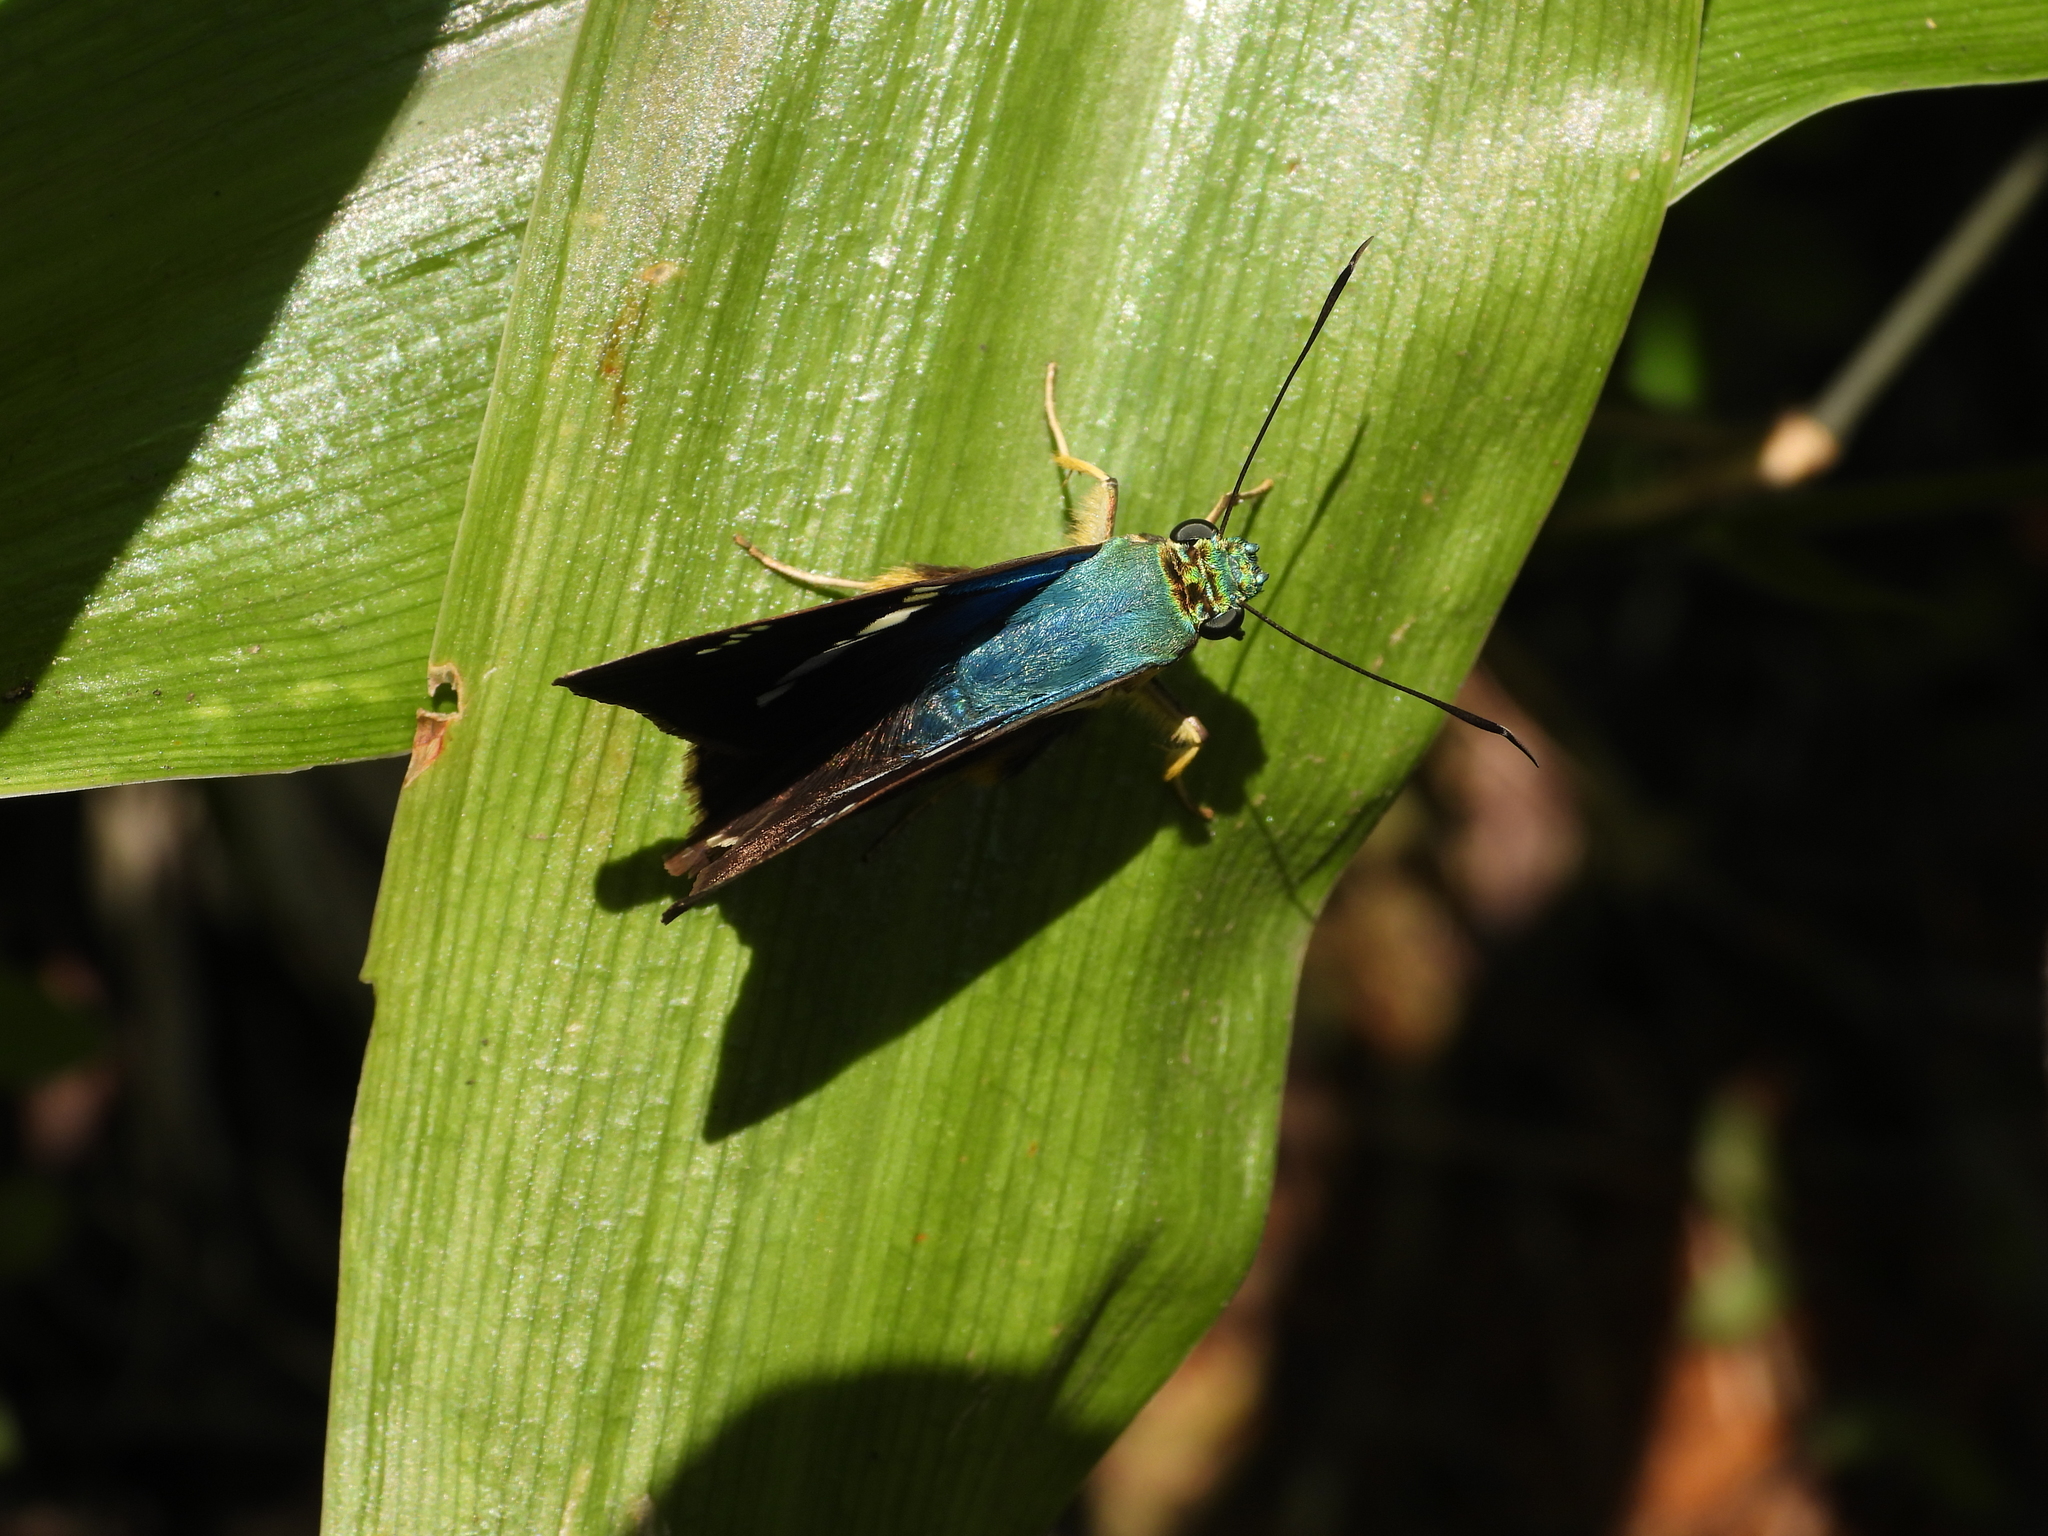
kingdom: Animalia
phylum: Arthropoda
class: Insecta
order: Lepidoptera
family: Hesperiidae
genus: Astraptes
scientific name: Astraptes fulgerator
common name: Two-barred flasher
